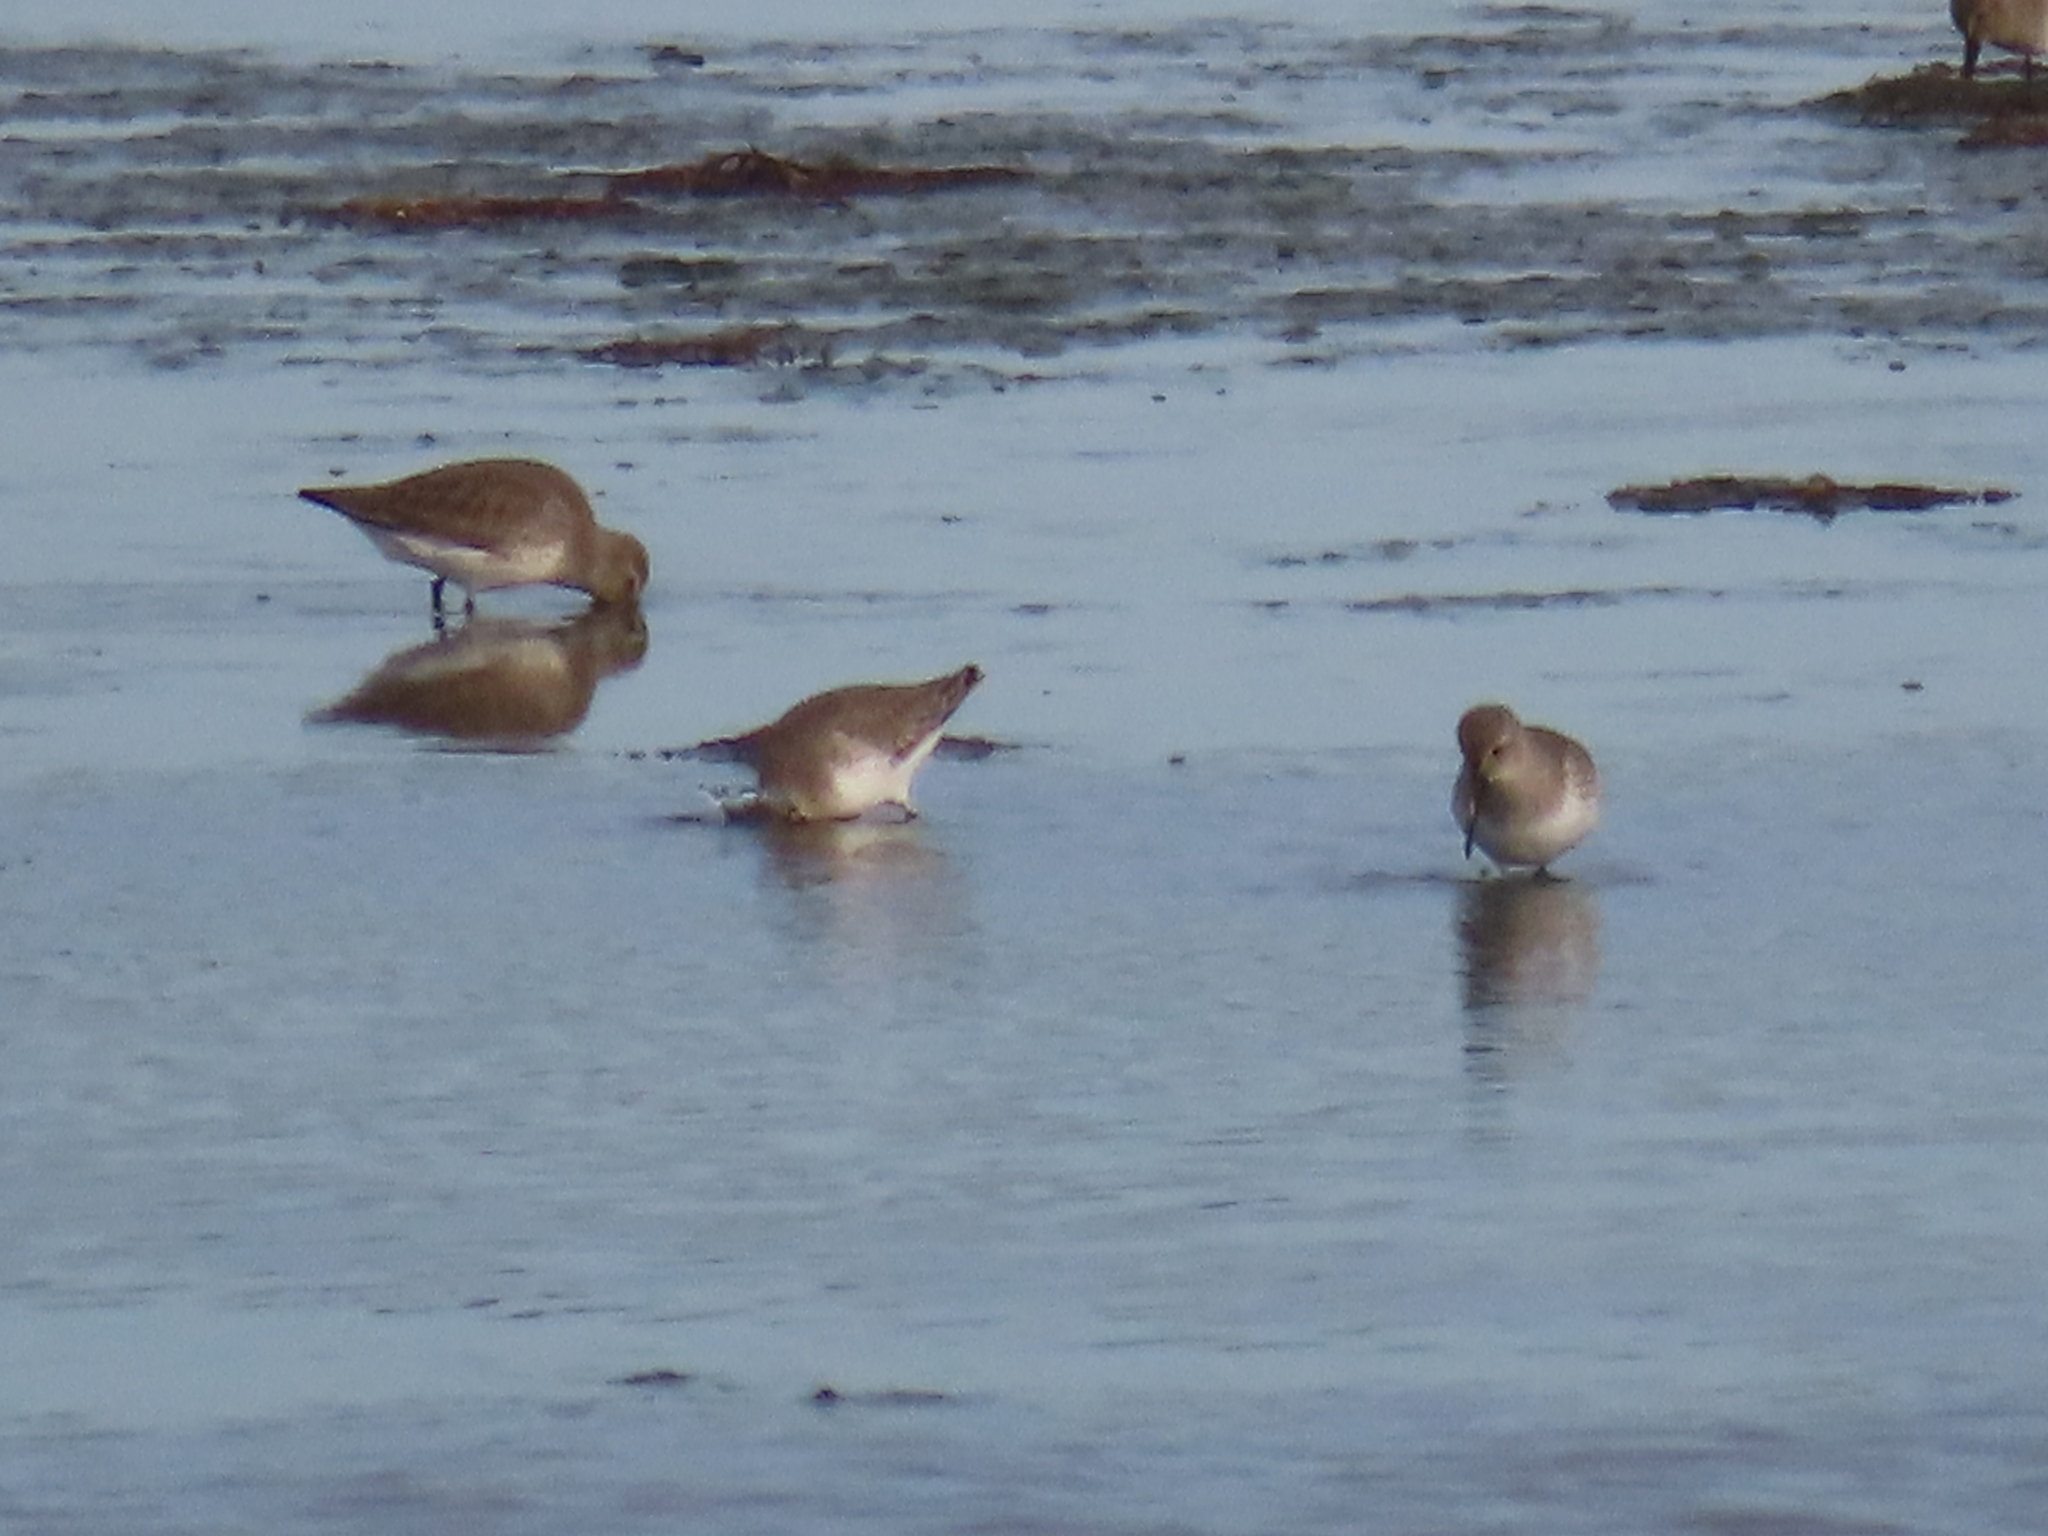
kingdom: Animalia
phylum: Chordata
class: Aves
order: Charadriiformes
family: Scolopacidae
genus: Calidris
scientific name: Calidris alpina
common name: Dunlin
